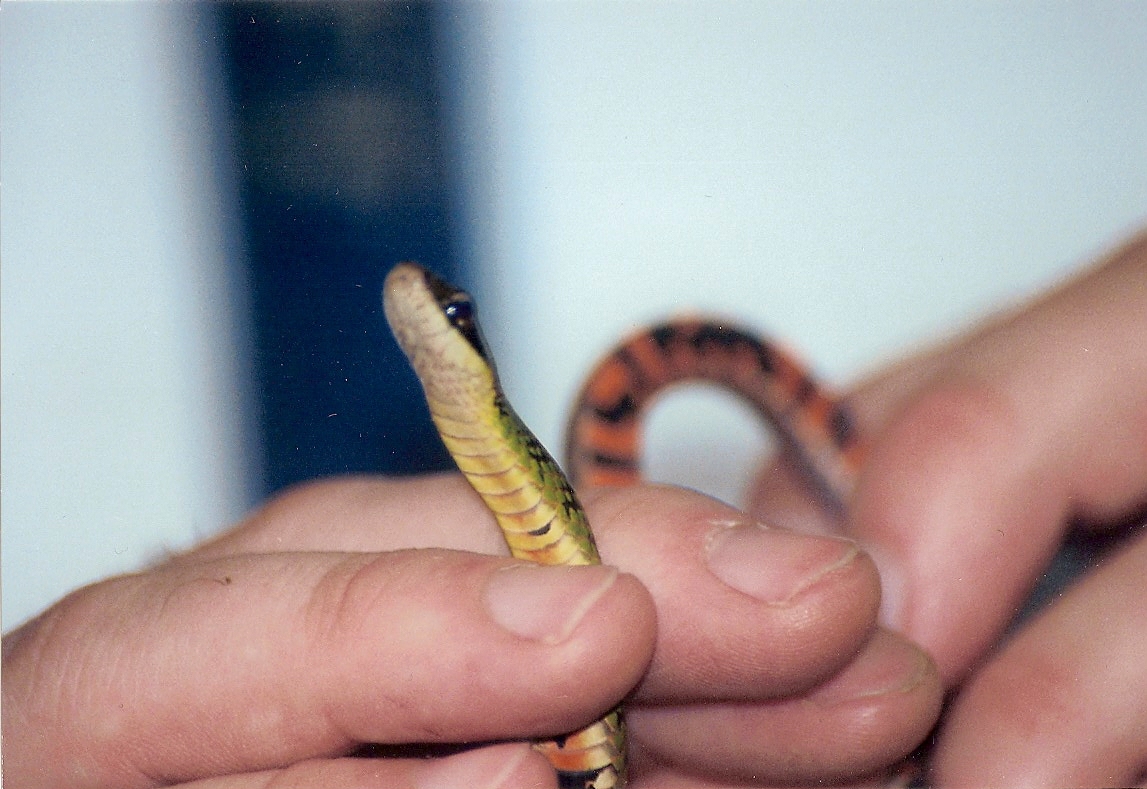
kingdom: Animalia
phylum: Chordata
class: Squamata
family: Colubridae
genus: Erythrolamprus
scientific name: Erythrolamprus zweifeli
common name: Braided groundsnake
